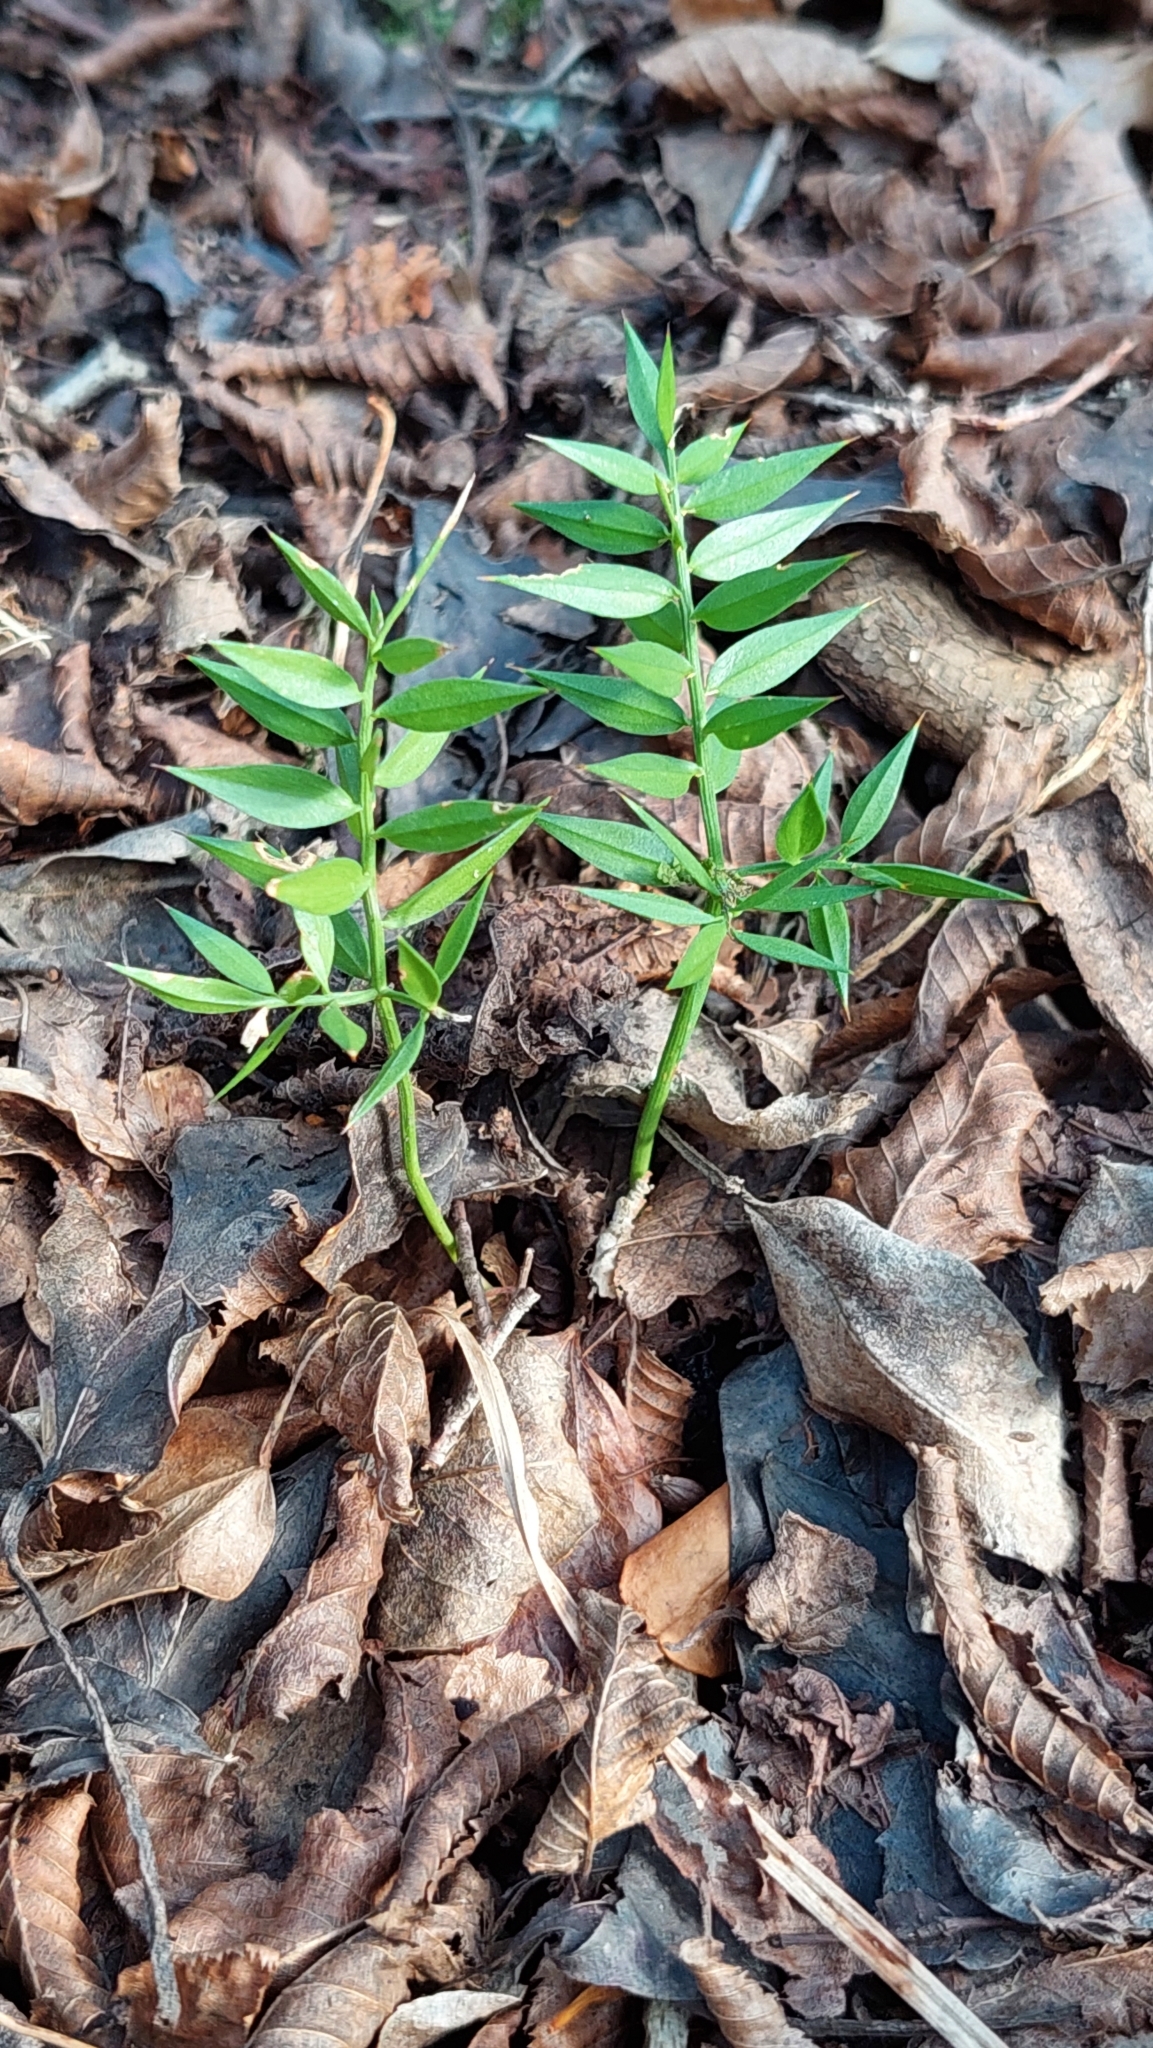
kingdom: Plantae
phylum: Tracheophyta
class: Liliopsida
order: Asparagales
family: Asparagaceae
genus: Ruscus
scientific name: Ruscus aculeatus
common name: Butcher's-broom
